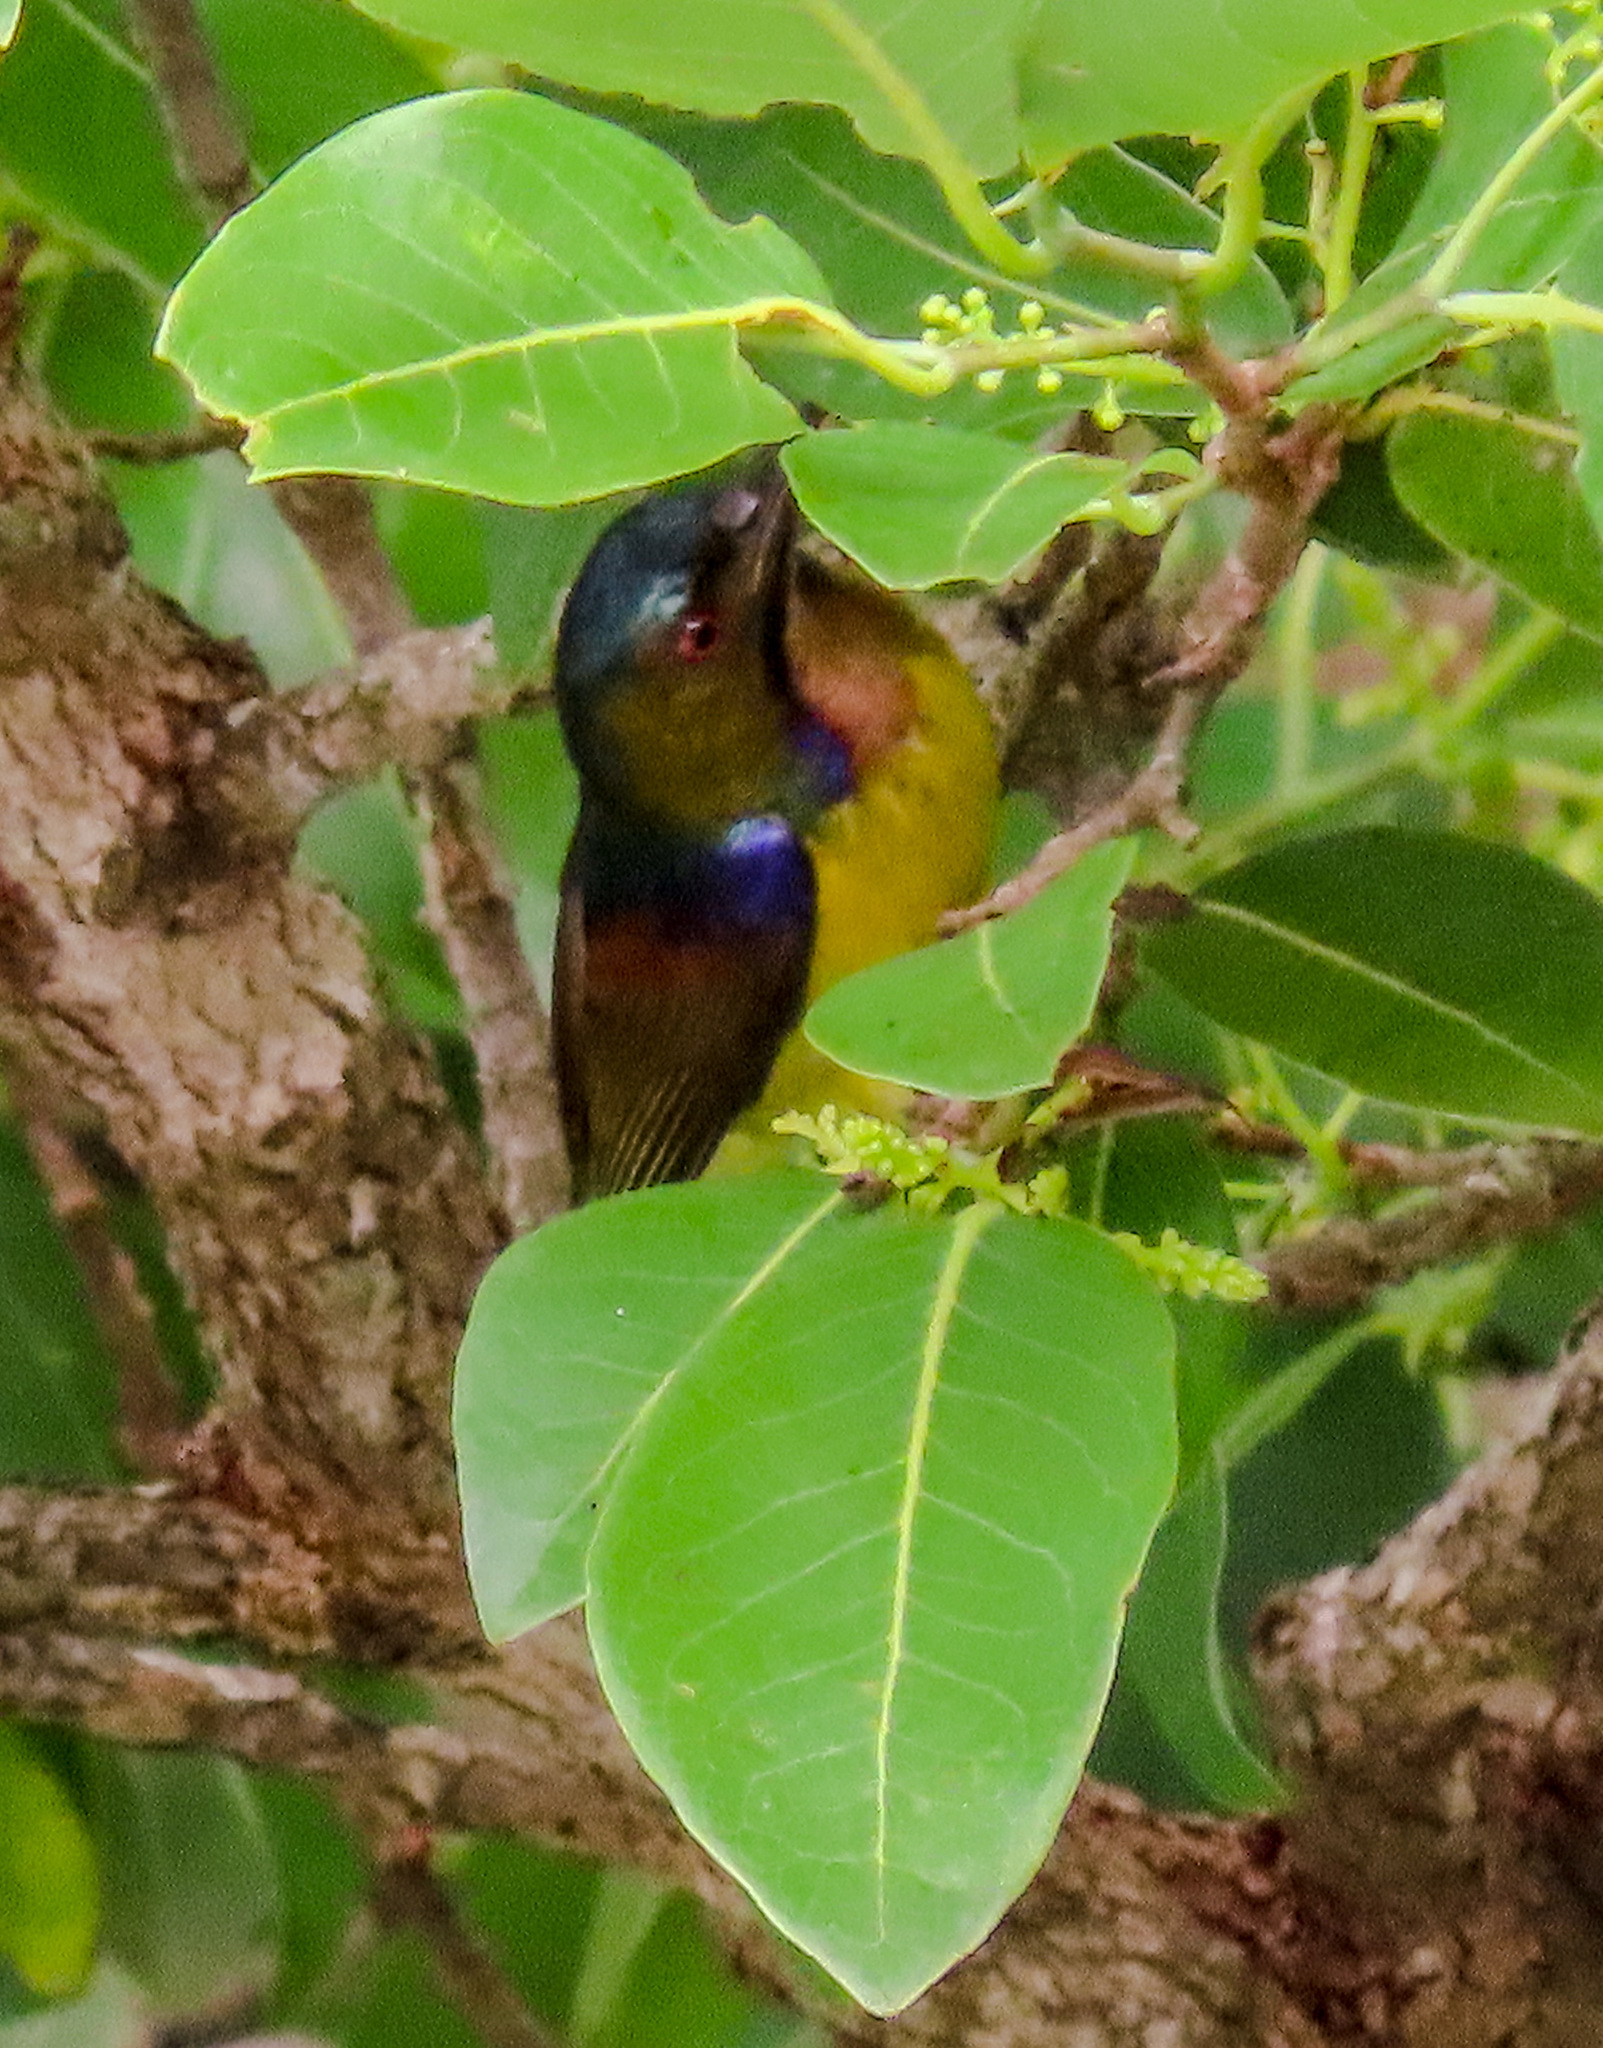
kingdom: Animalia
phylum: Chordata
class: Aves
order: Passeriformes
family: Nectariniidae
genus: Anthreptes
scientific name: Anthreptes malacensis
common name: Brown-throated sunbird
